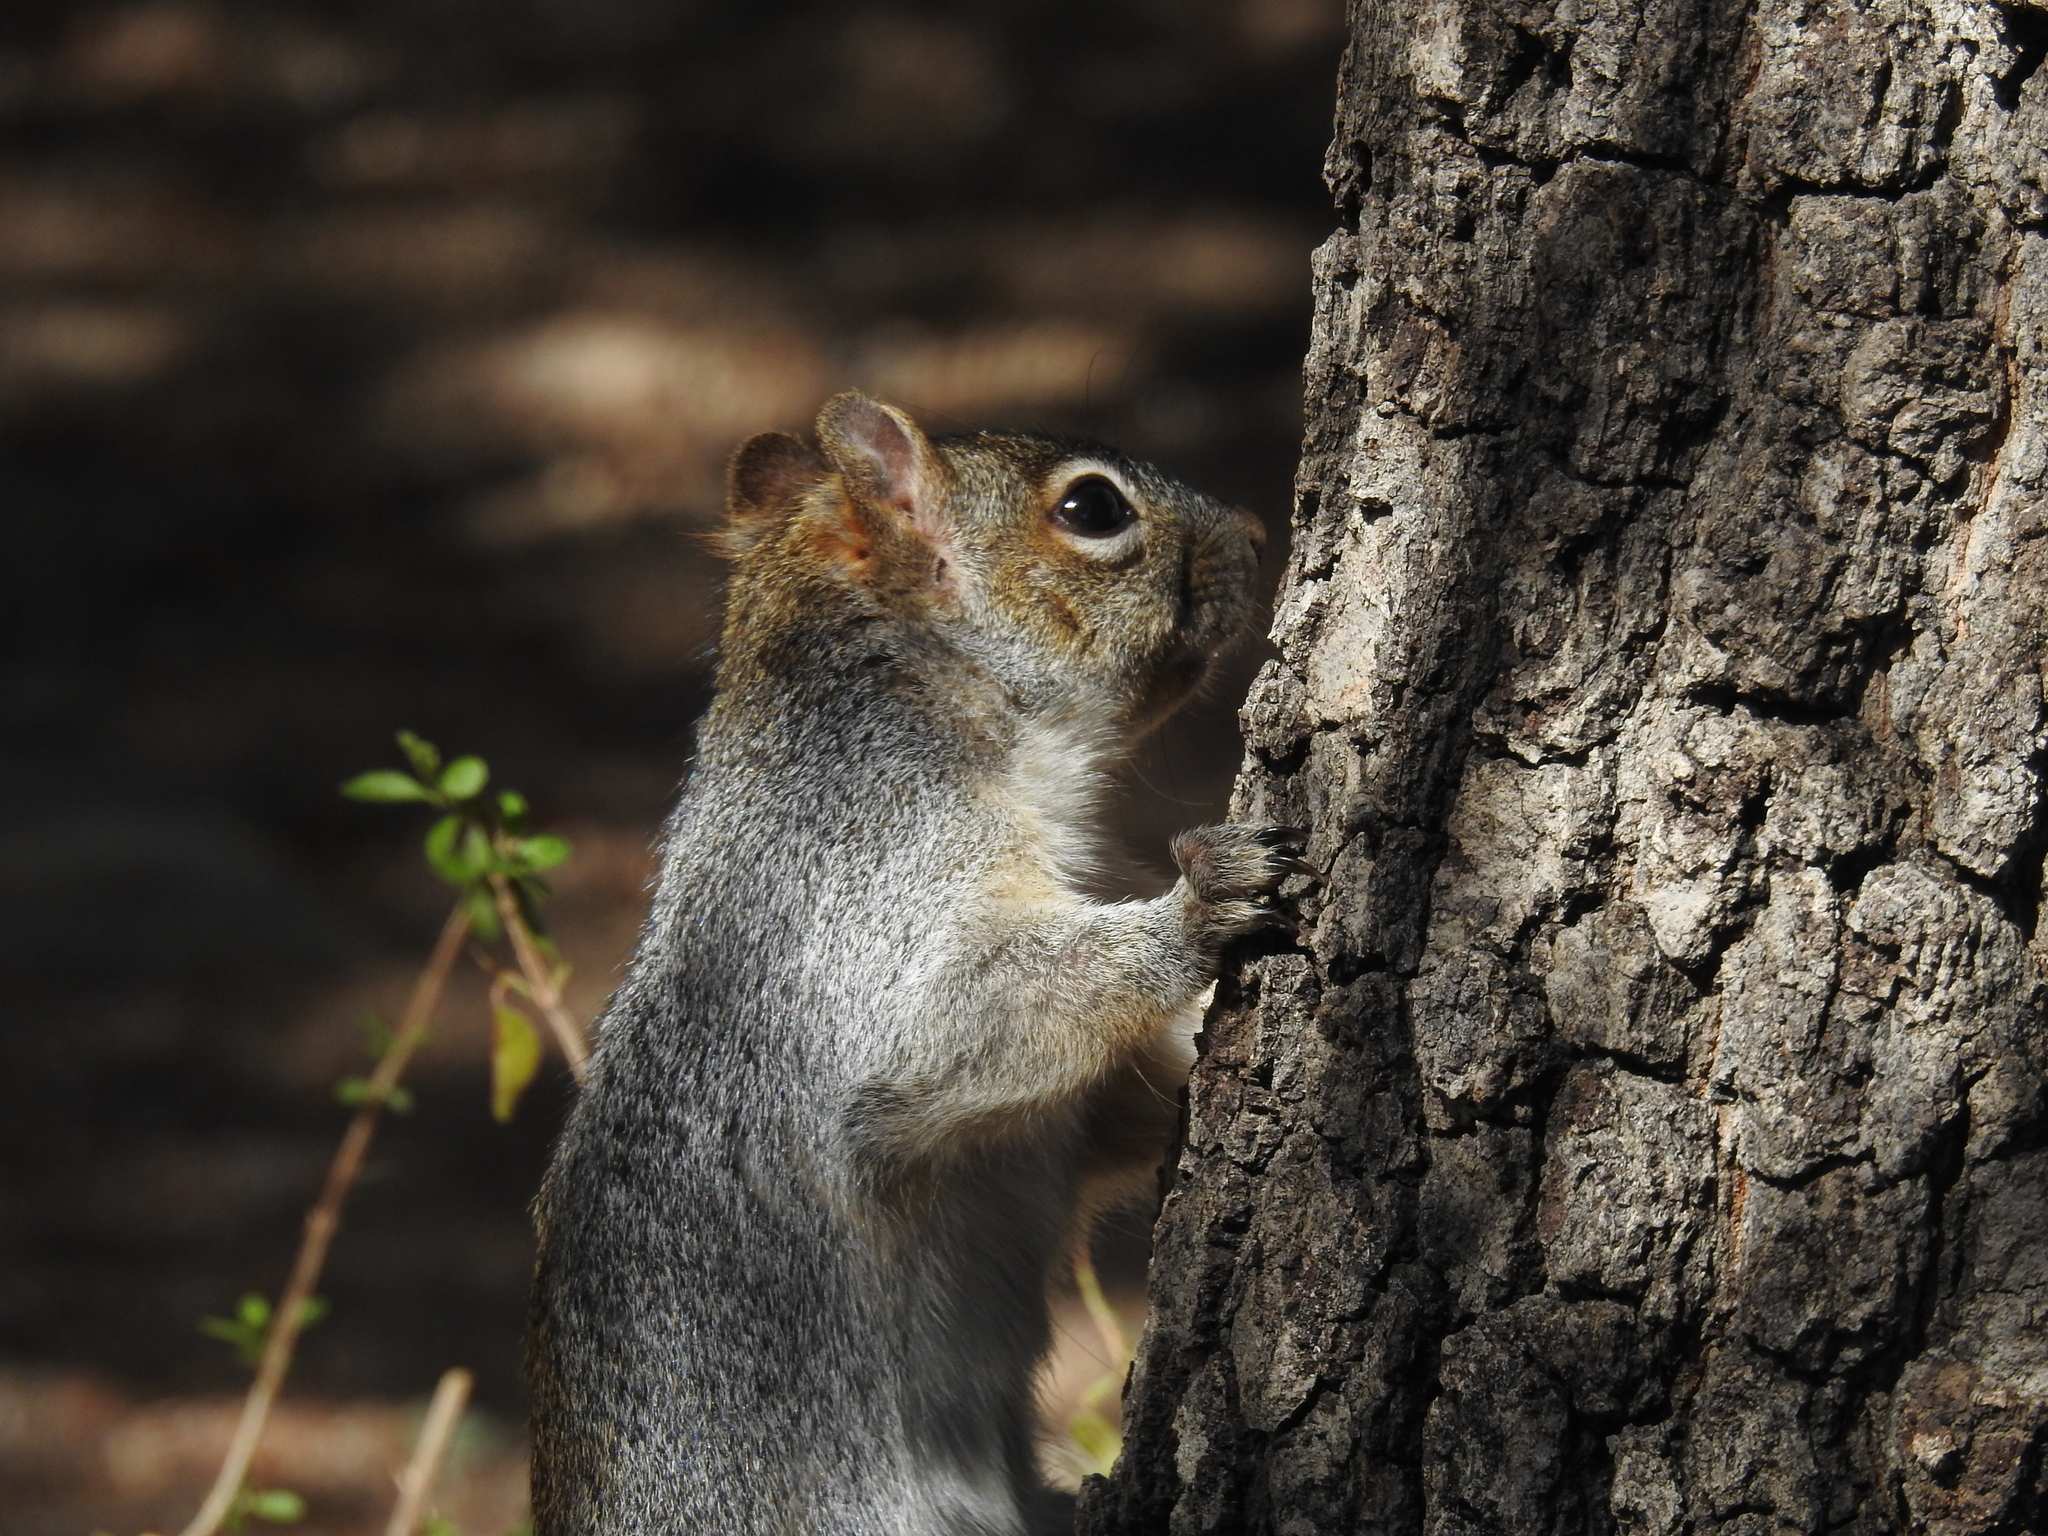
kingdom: Animalia
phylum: Chordata
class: Mammalia
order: Rodentia
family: Sciuridae
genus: Sciurus
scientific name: Sciurus arizonensis
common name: Arizona gray squirrel
